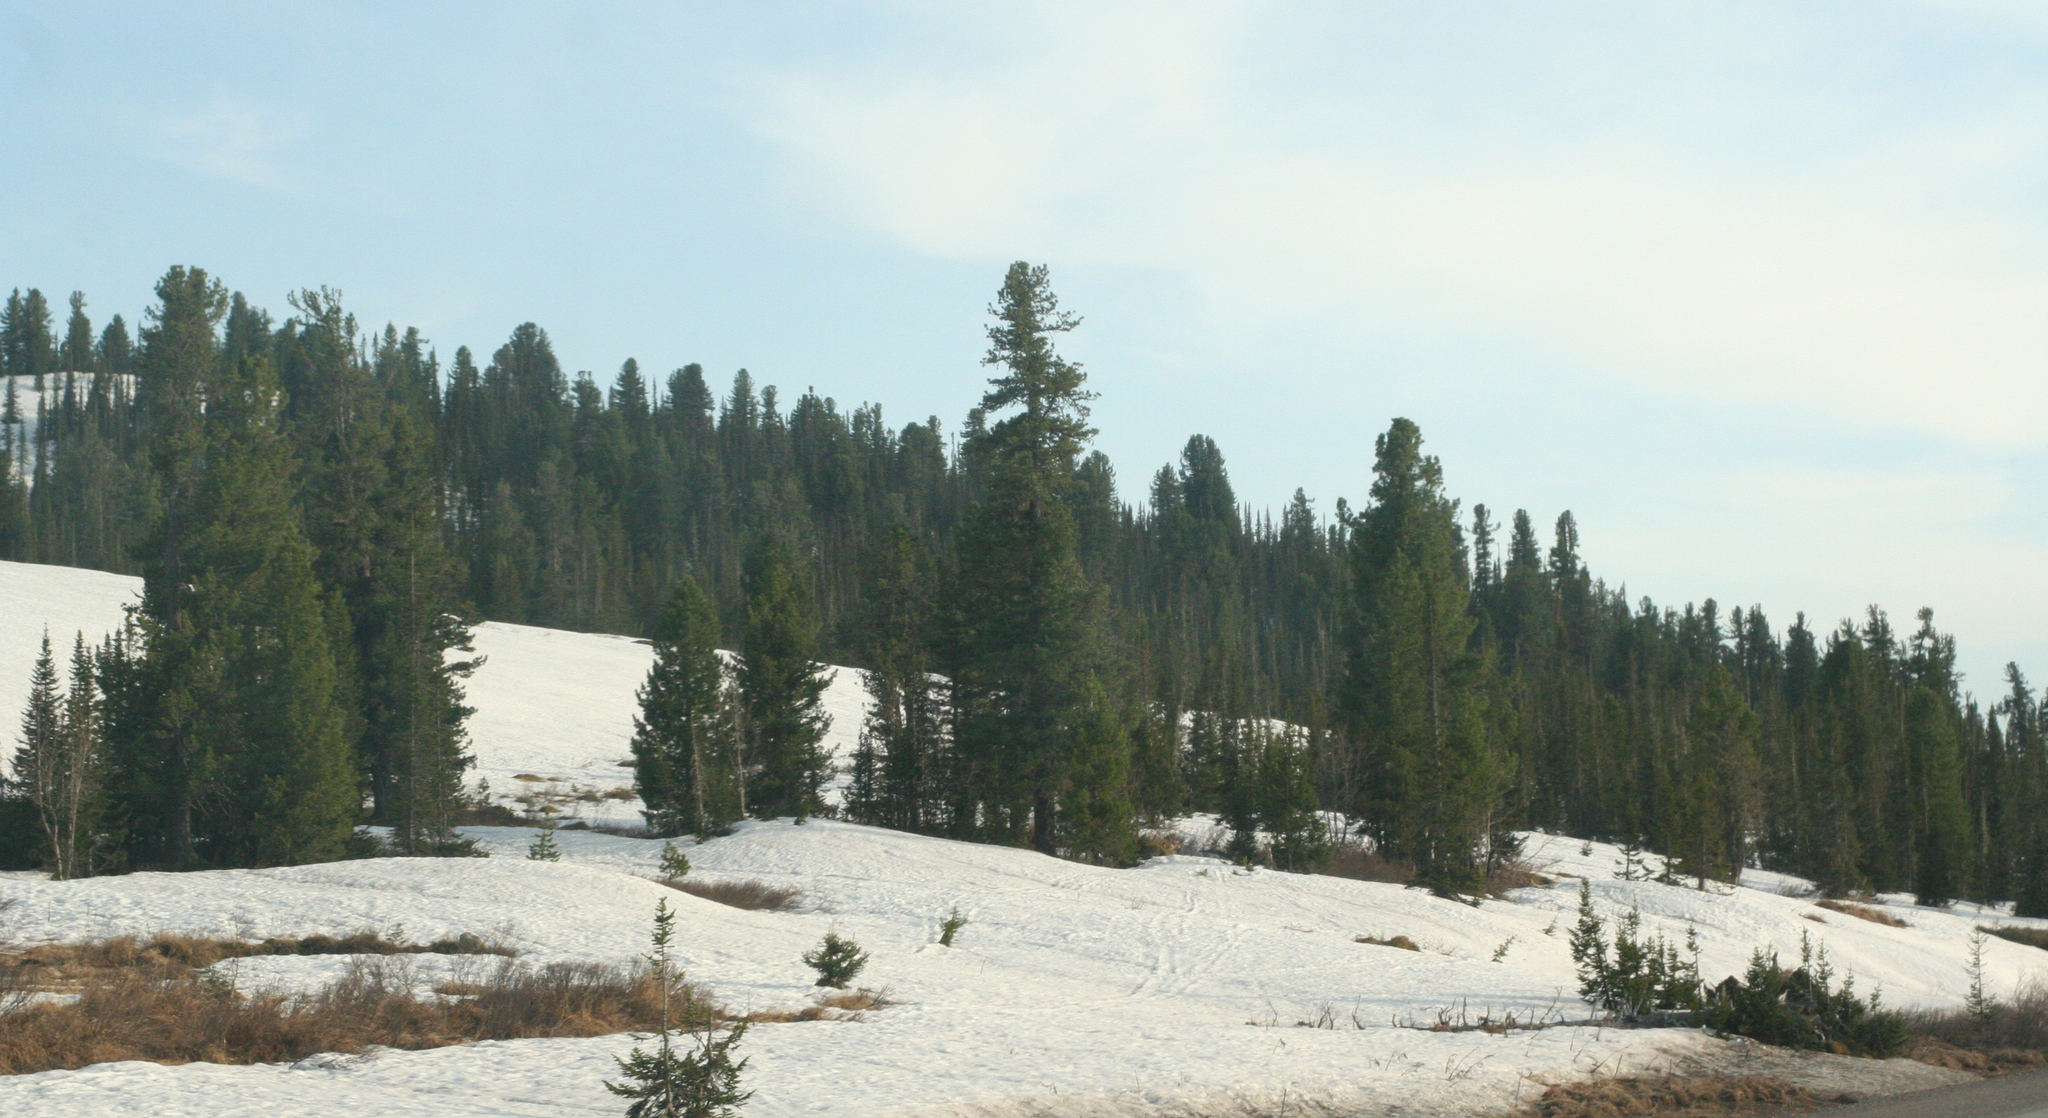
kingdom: Plantae
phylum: Tracheophyta
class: Pinopsida
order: Pinales
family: Pinaceae
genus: Pinus
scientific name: Pinus sibirica
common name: Siberian pine
